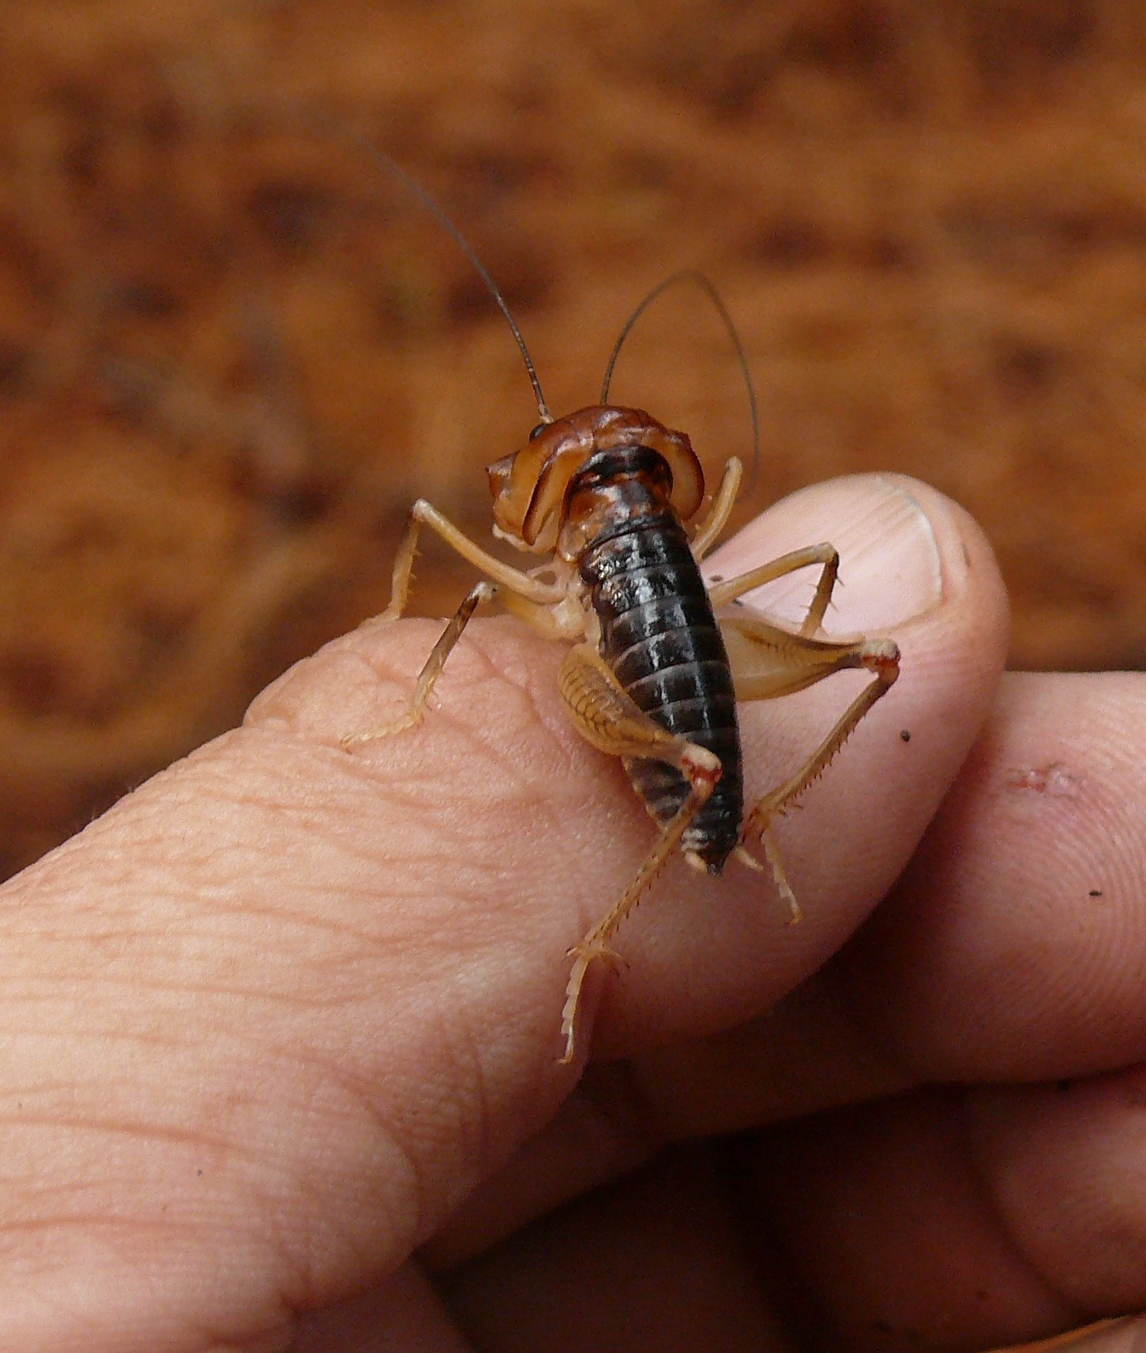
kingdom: Animalia
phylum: Arthropoda
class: Insecta
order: Orthoptera
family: Anostostomatidae
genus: Henicus
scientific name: Henicus monstrosus
